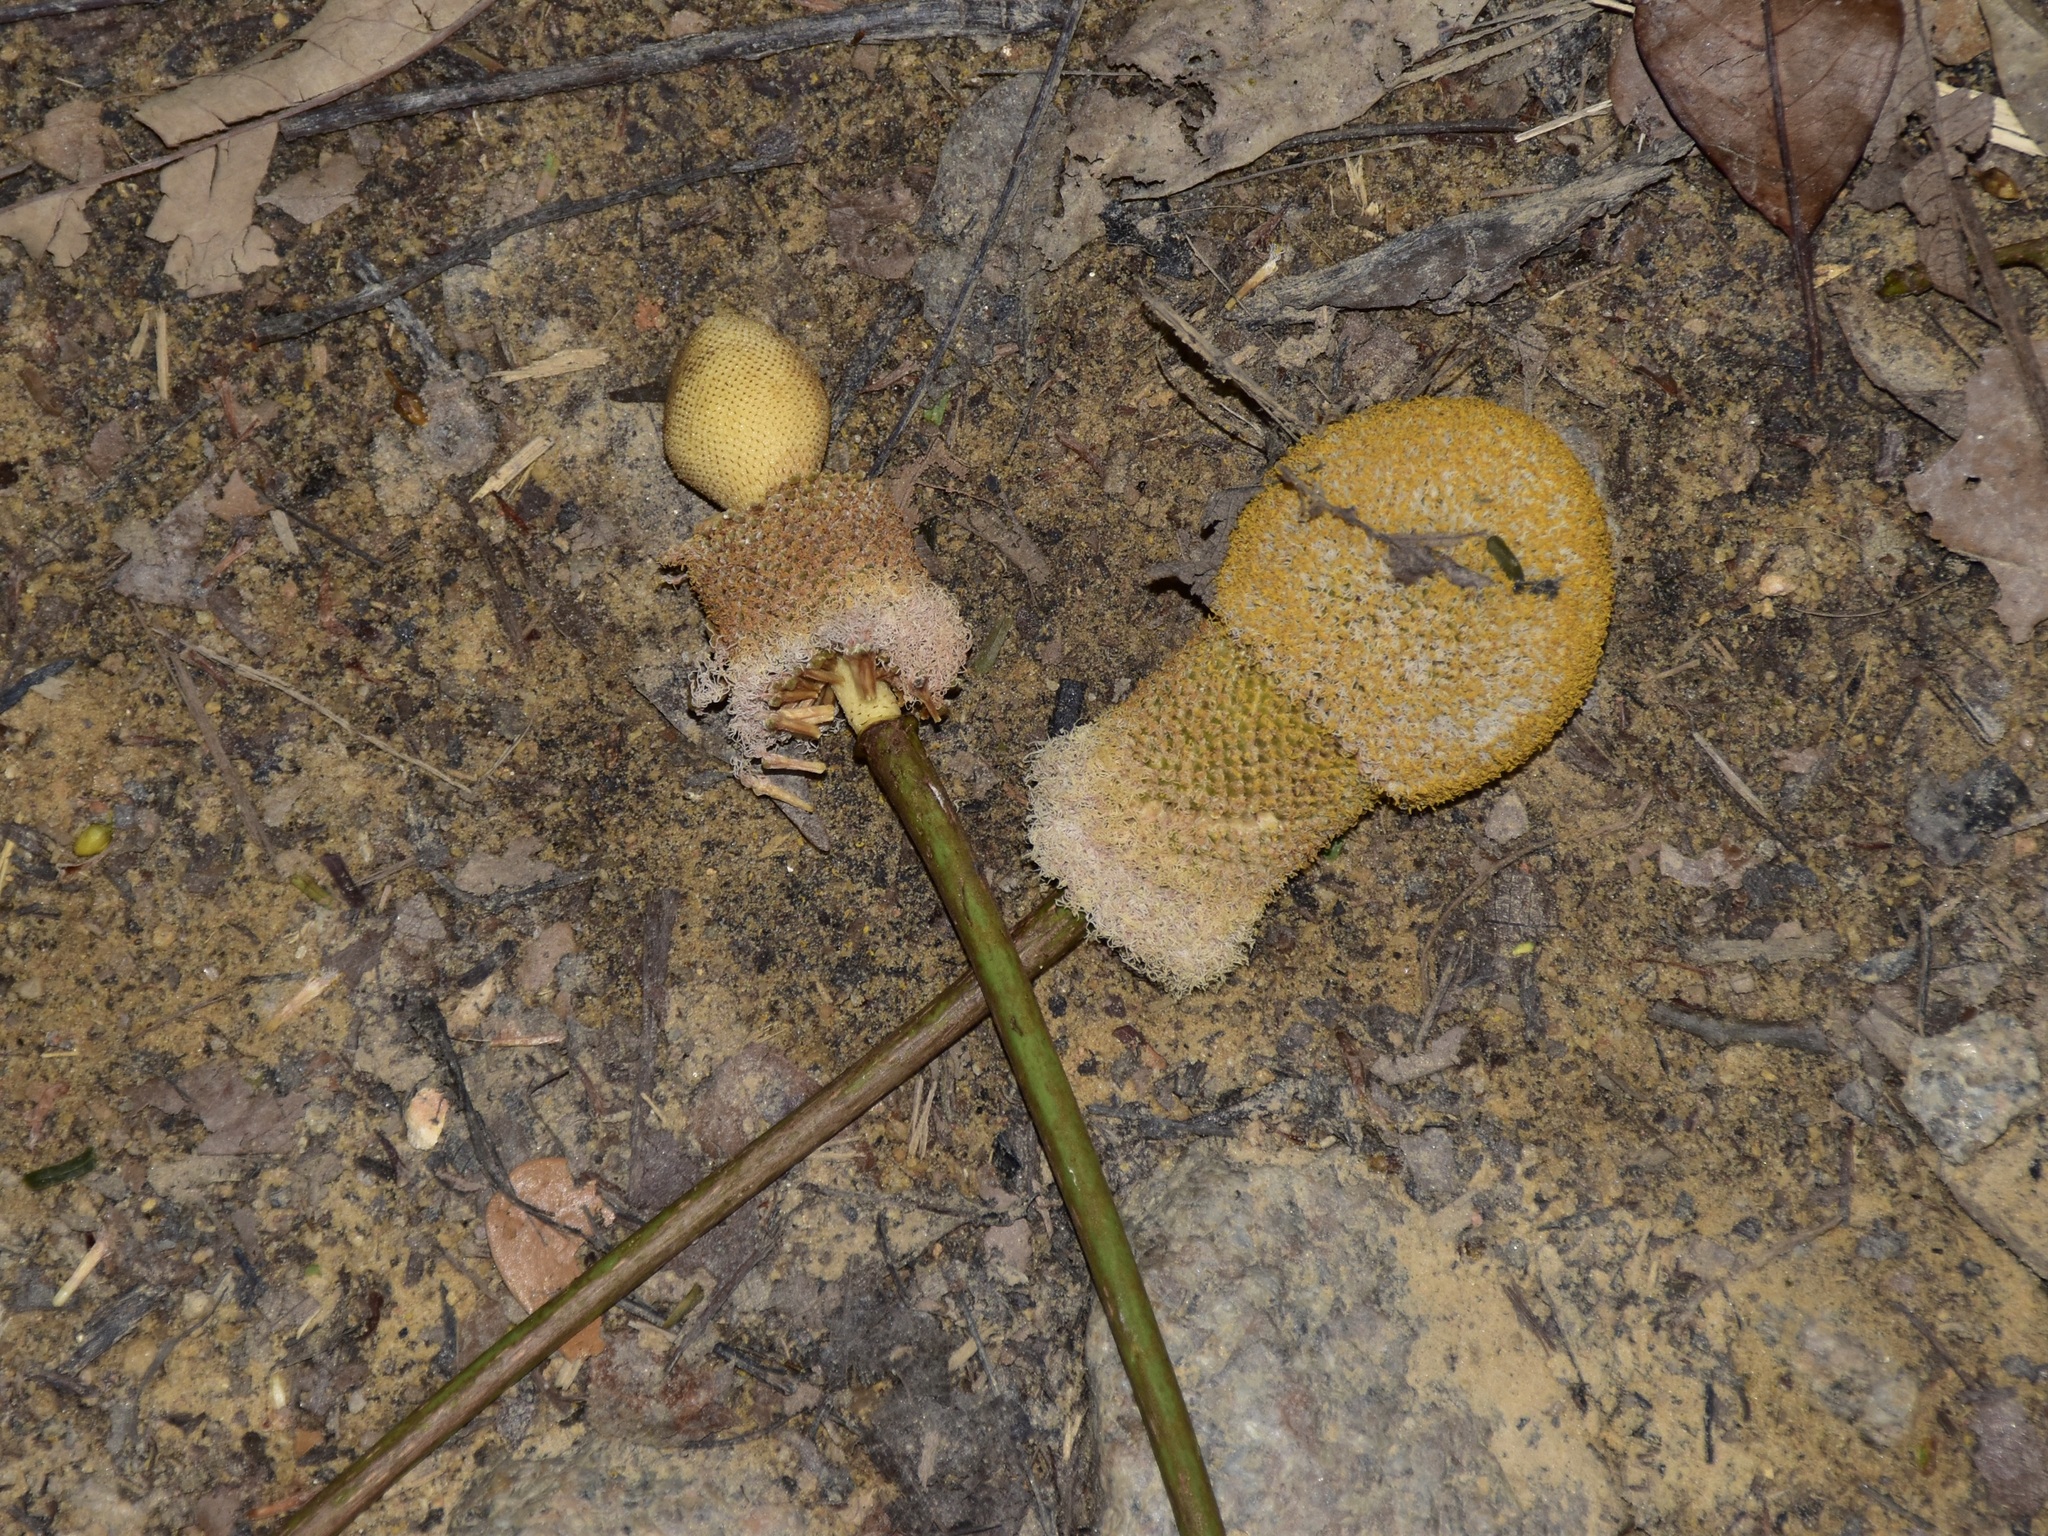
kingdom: Plantae
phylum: Tracheophyta
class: Magnoliopsida
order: Fabales
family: Fabaceae
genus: Parkia
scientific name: Parkia speciosa
